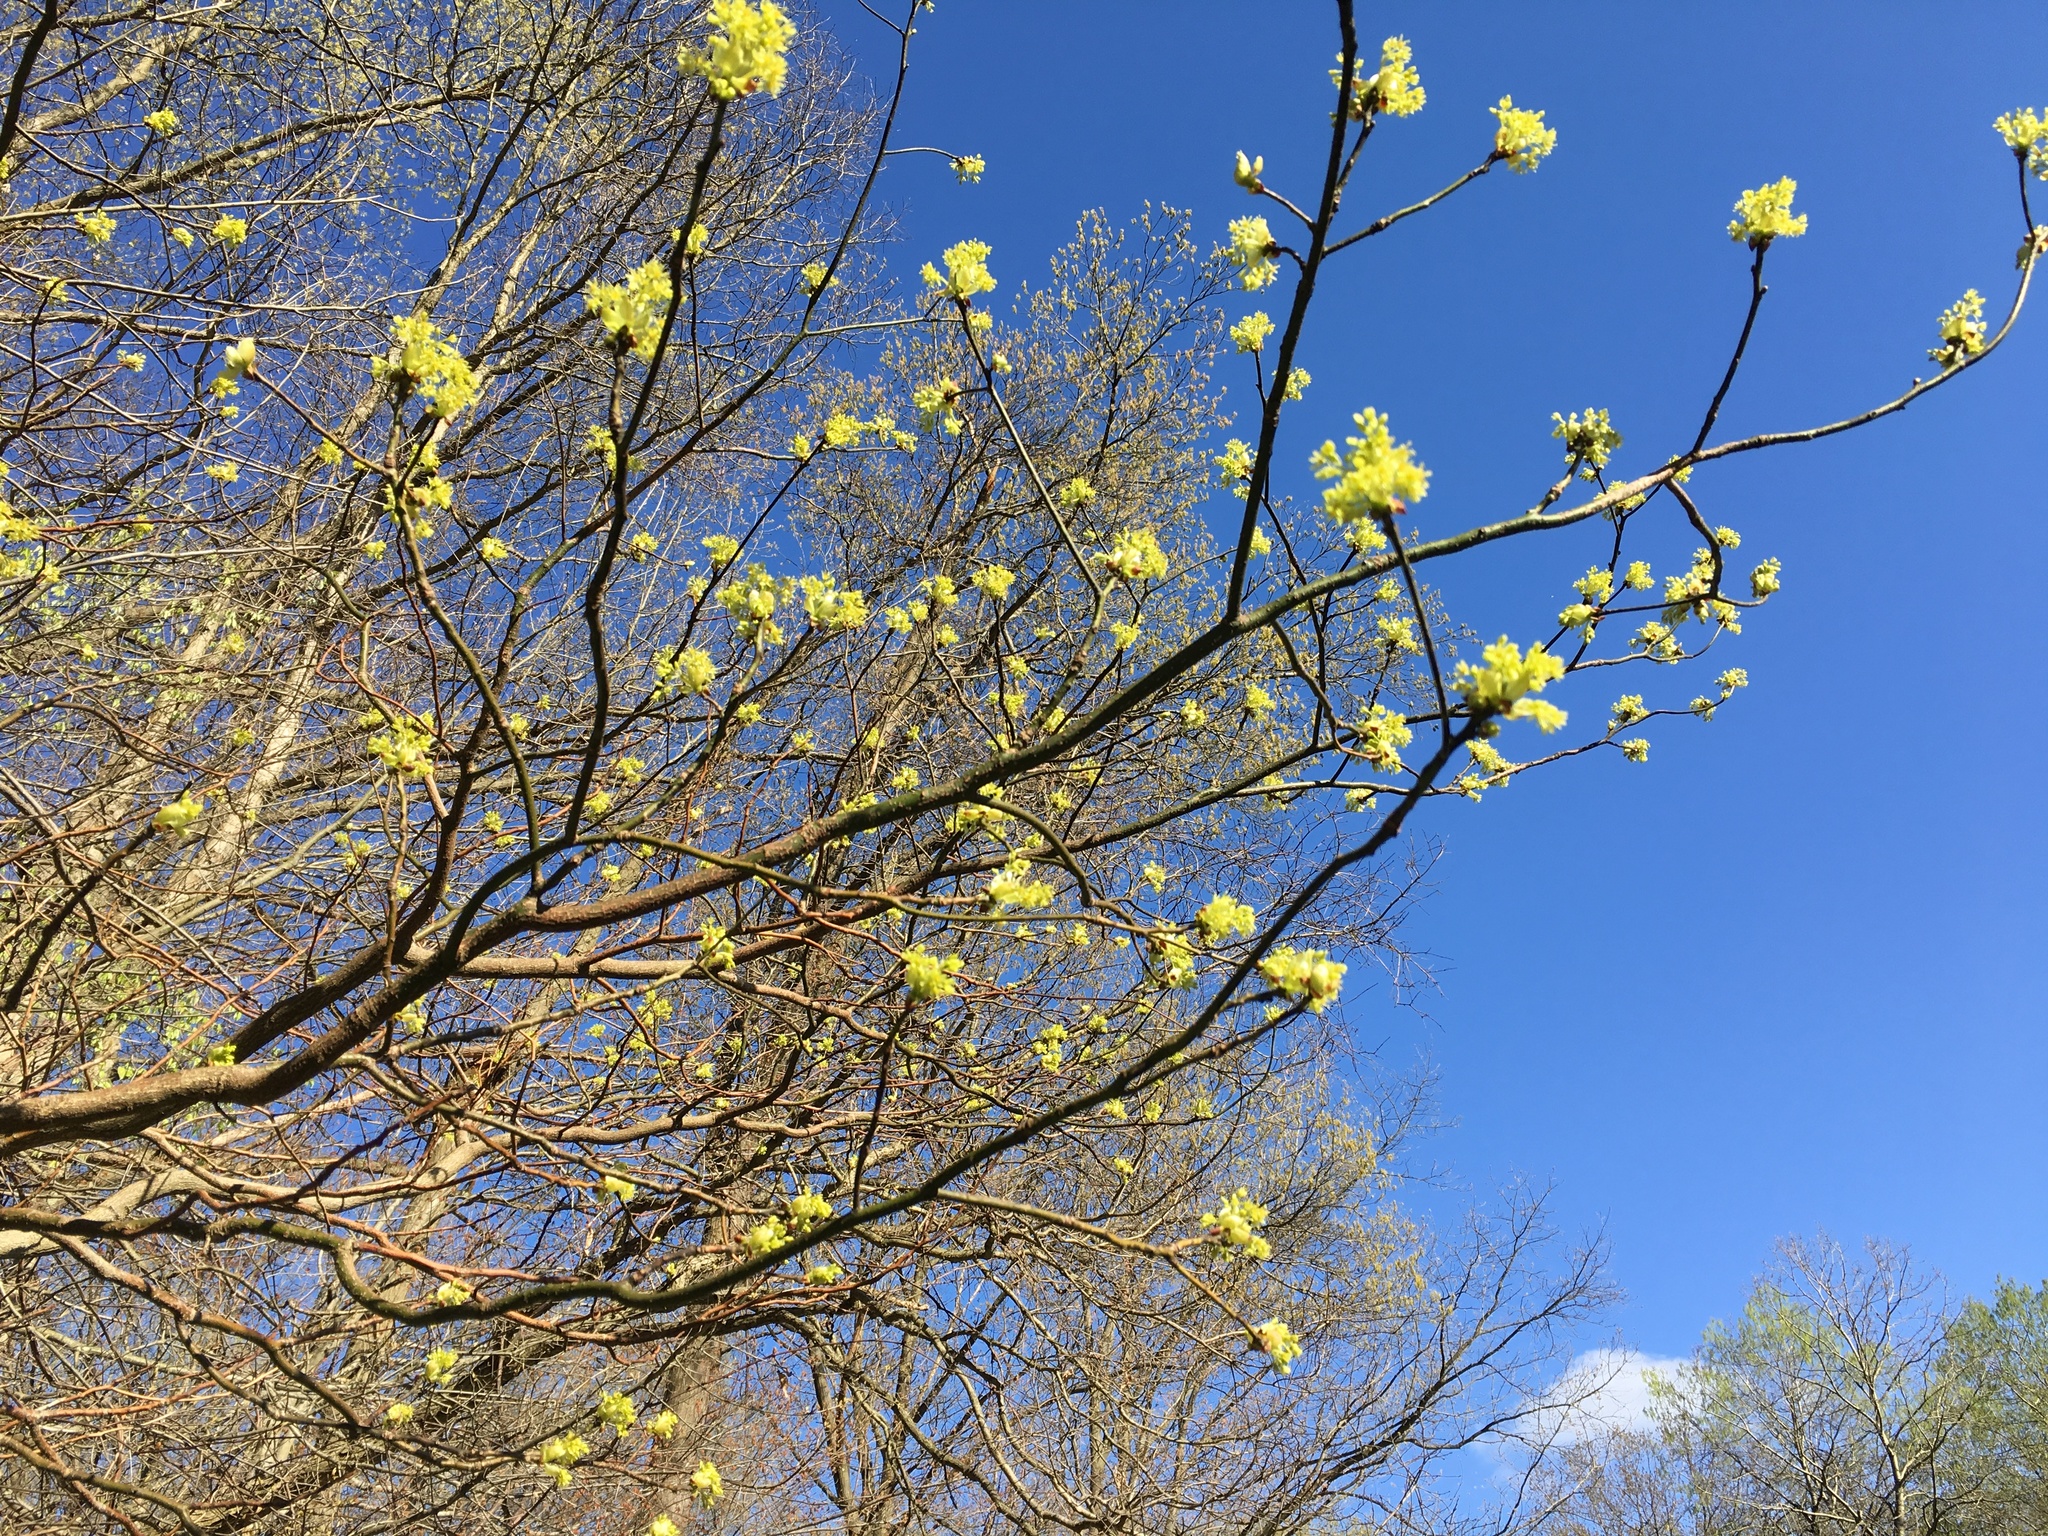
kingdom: Plantae
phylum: Tracheophyta
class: Magnoliopsida
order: Laurales
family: Lauraceae
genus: Sassafras
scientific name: Sassafras albidum
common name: Sassafras
